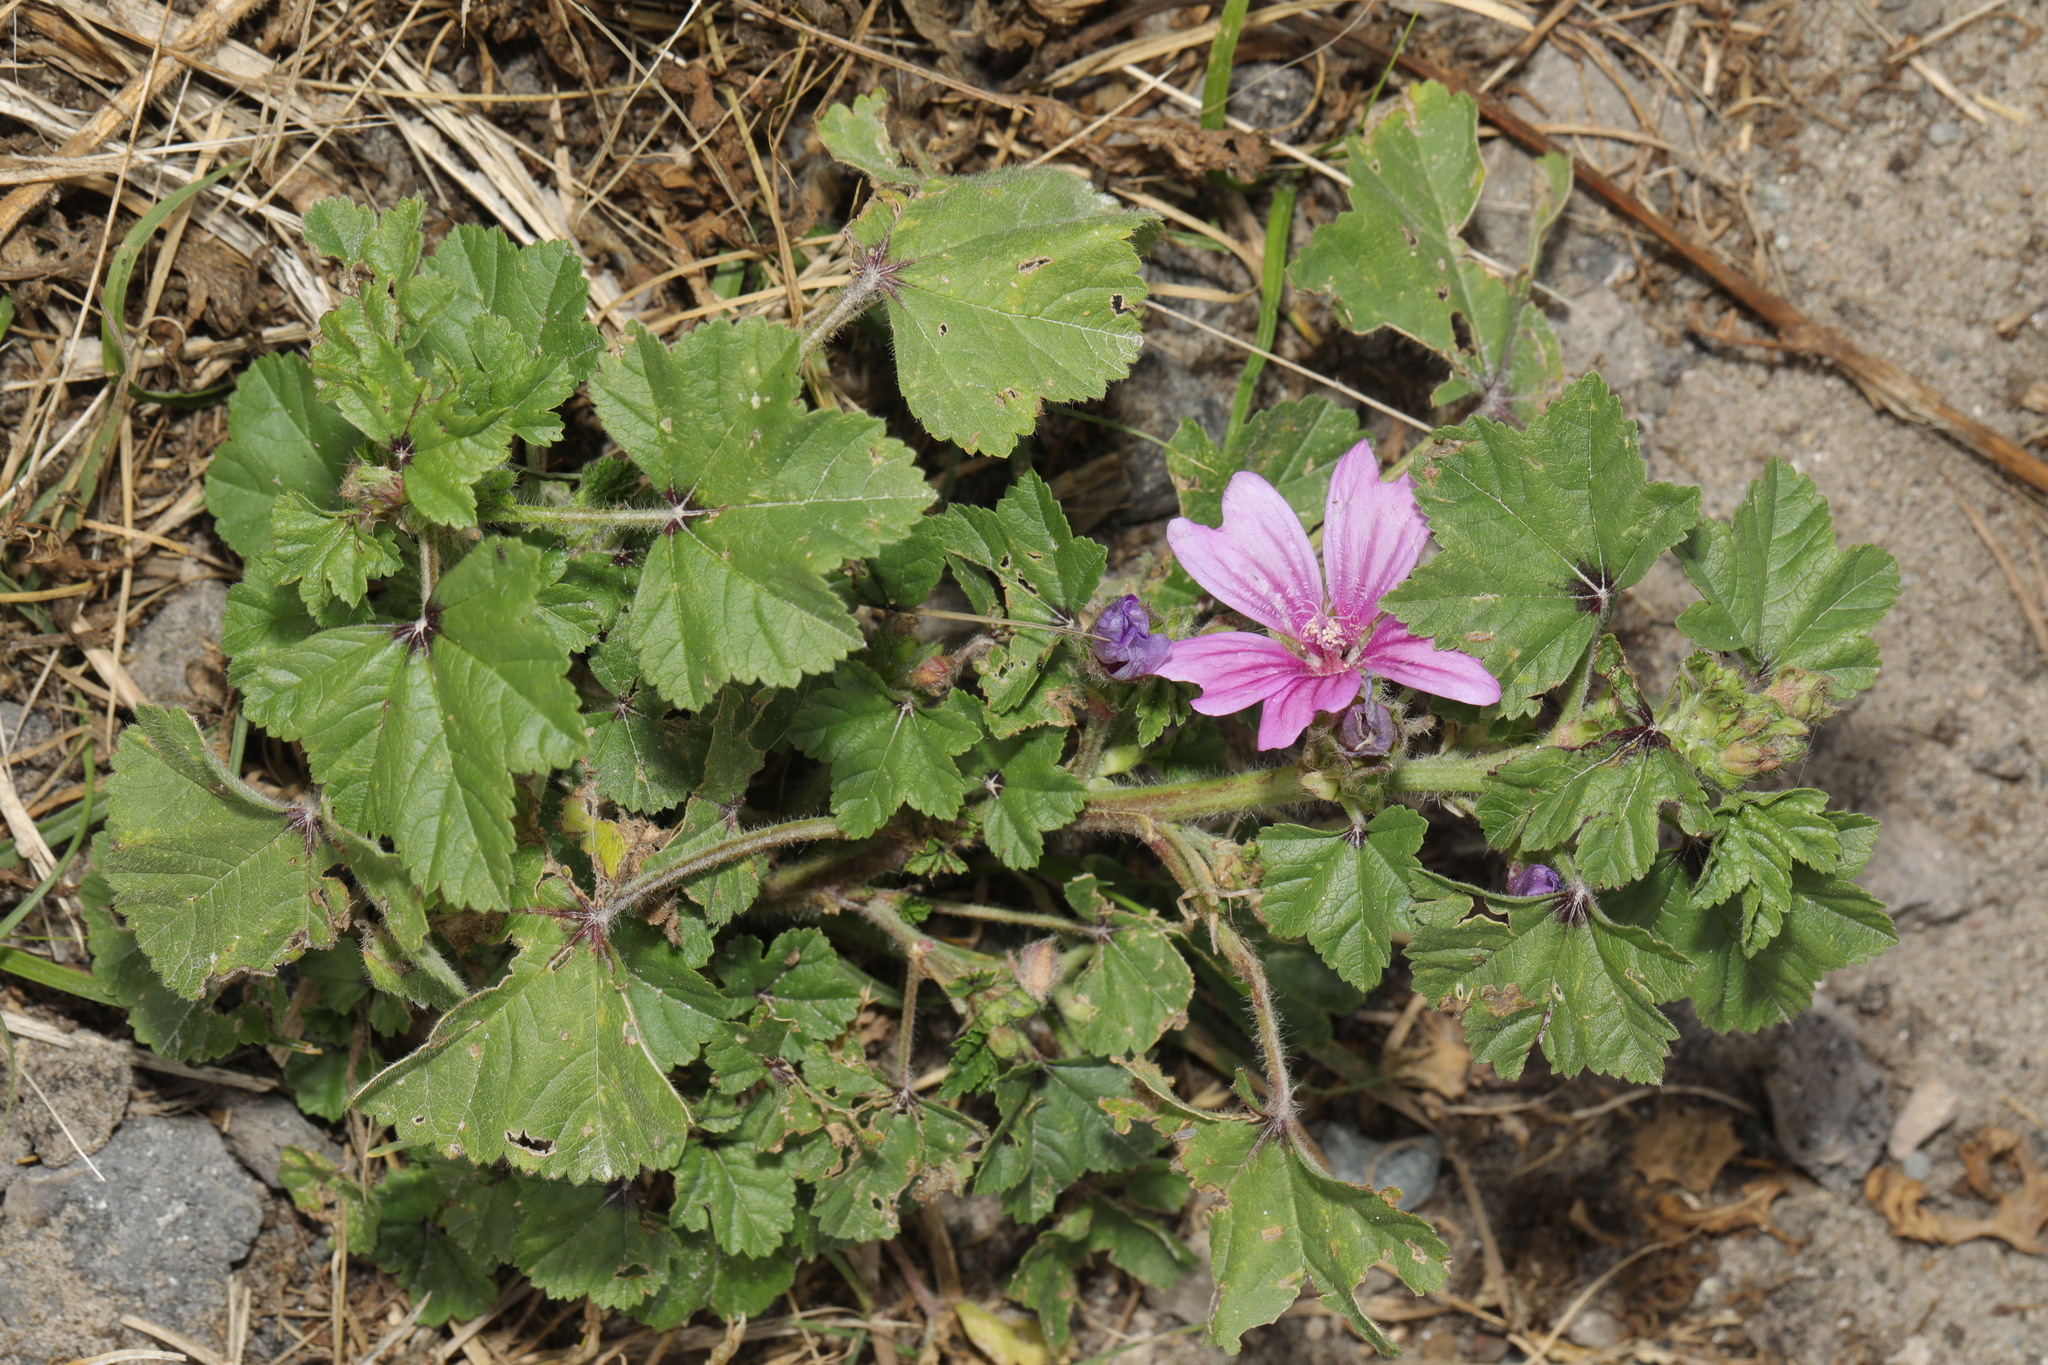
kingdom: Plantae
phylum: Tracheophyta
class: Magnoliopsida
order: Malvales
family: Malvaceae
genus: Malva
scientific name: Malva sylvestris
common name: Common mallow
